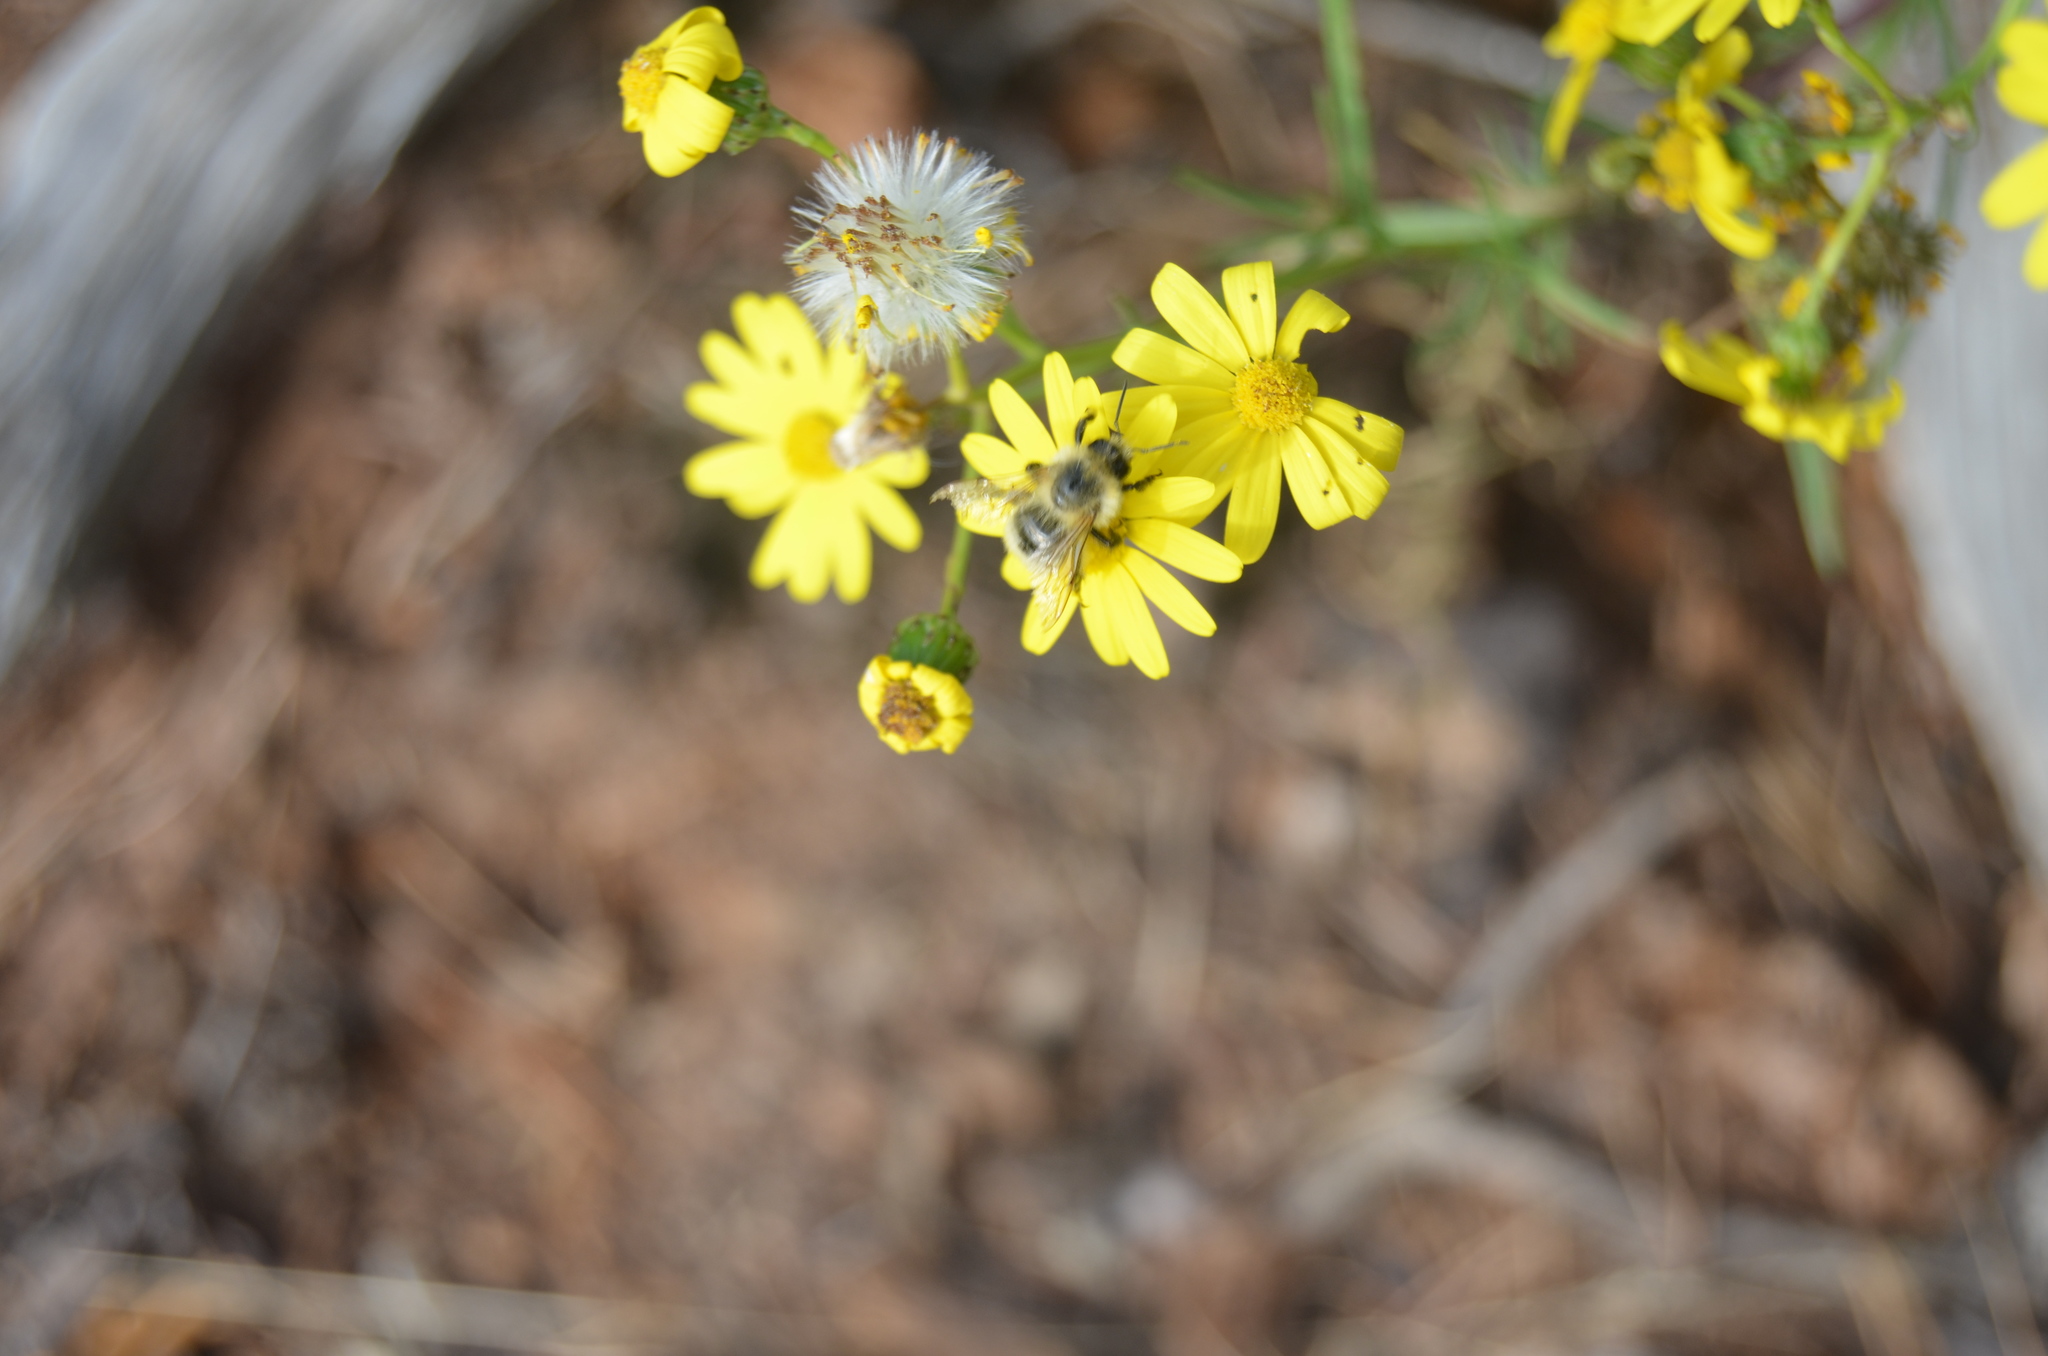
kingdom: Plantae
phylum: Tracheophyta
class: Magnoliopsida
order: Asterales
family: Asteraceae
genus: Senecio
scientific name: Senecio inaequidens
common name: Narrow-leaved ragwort
